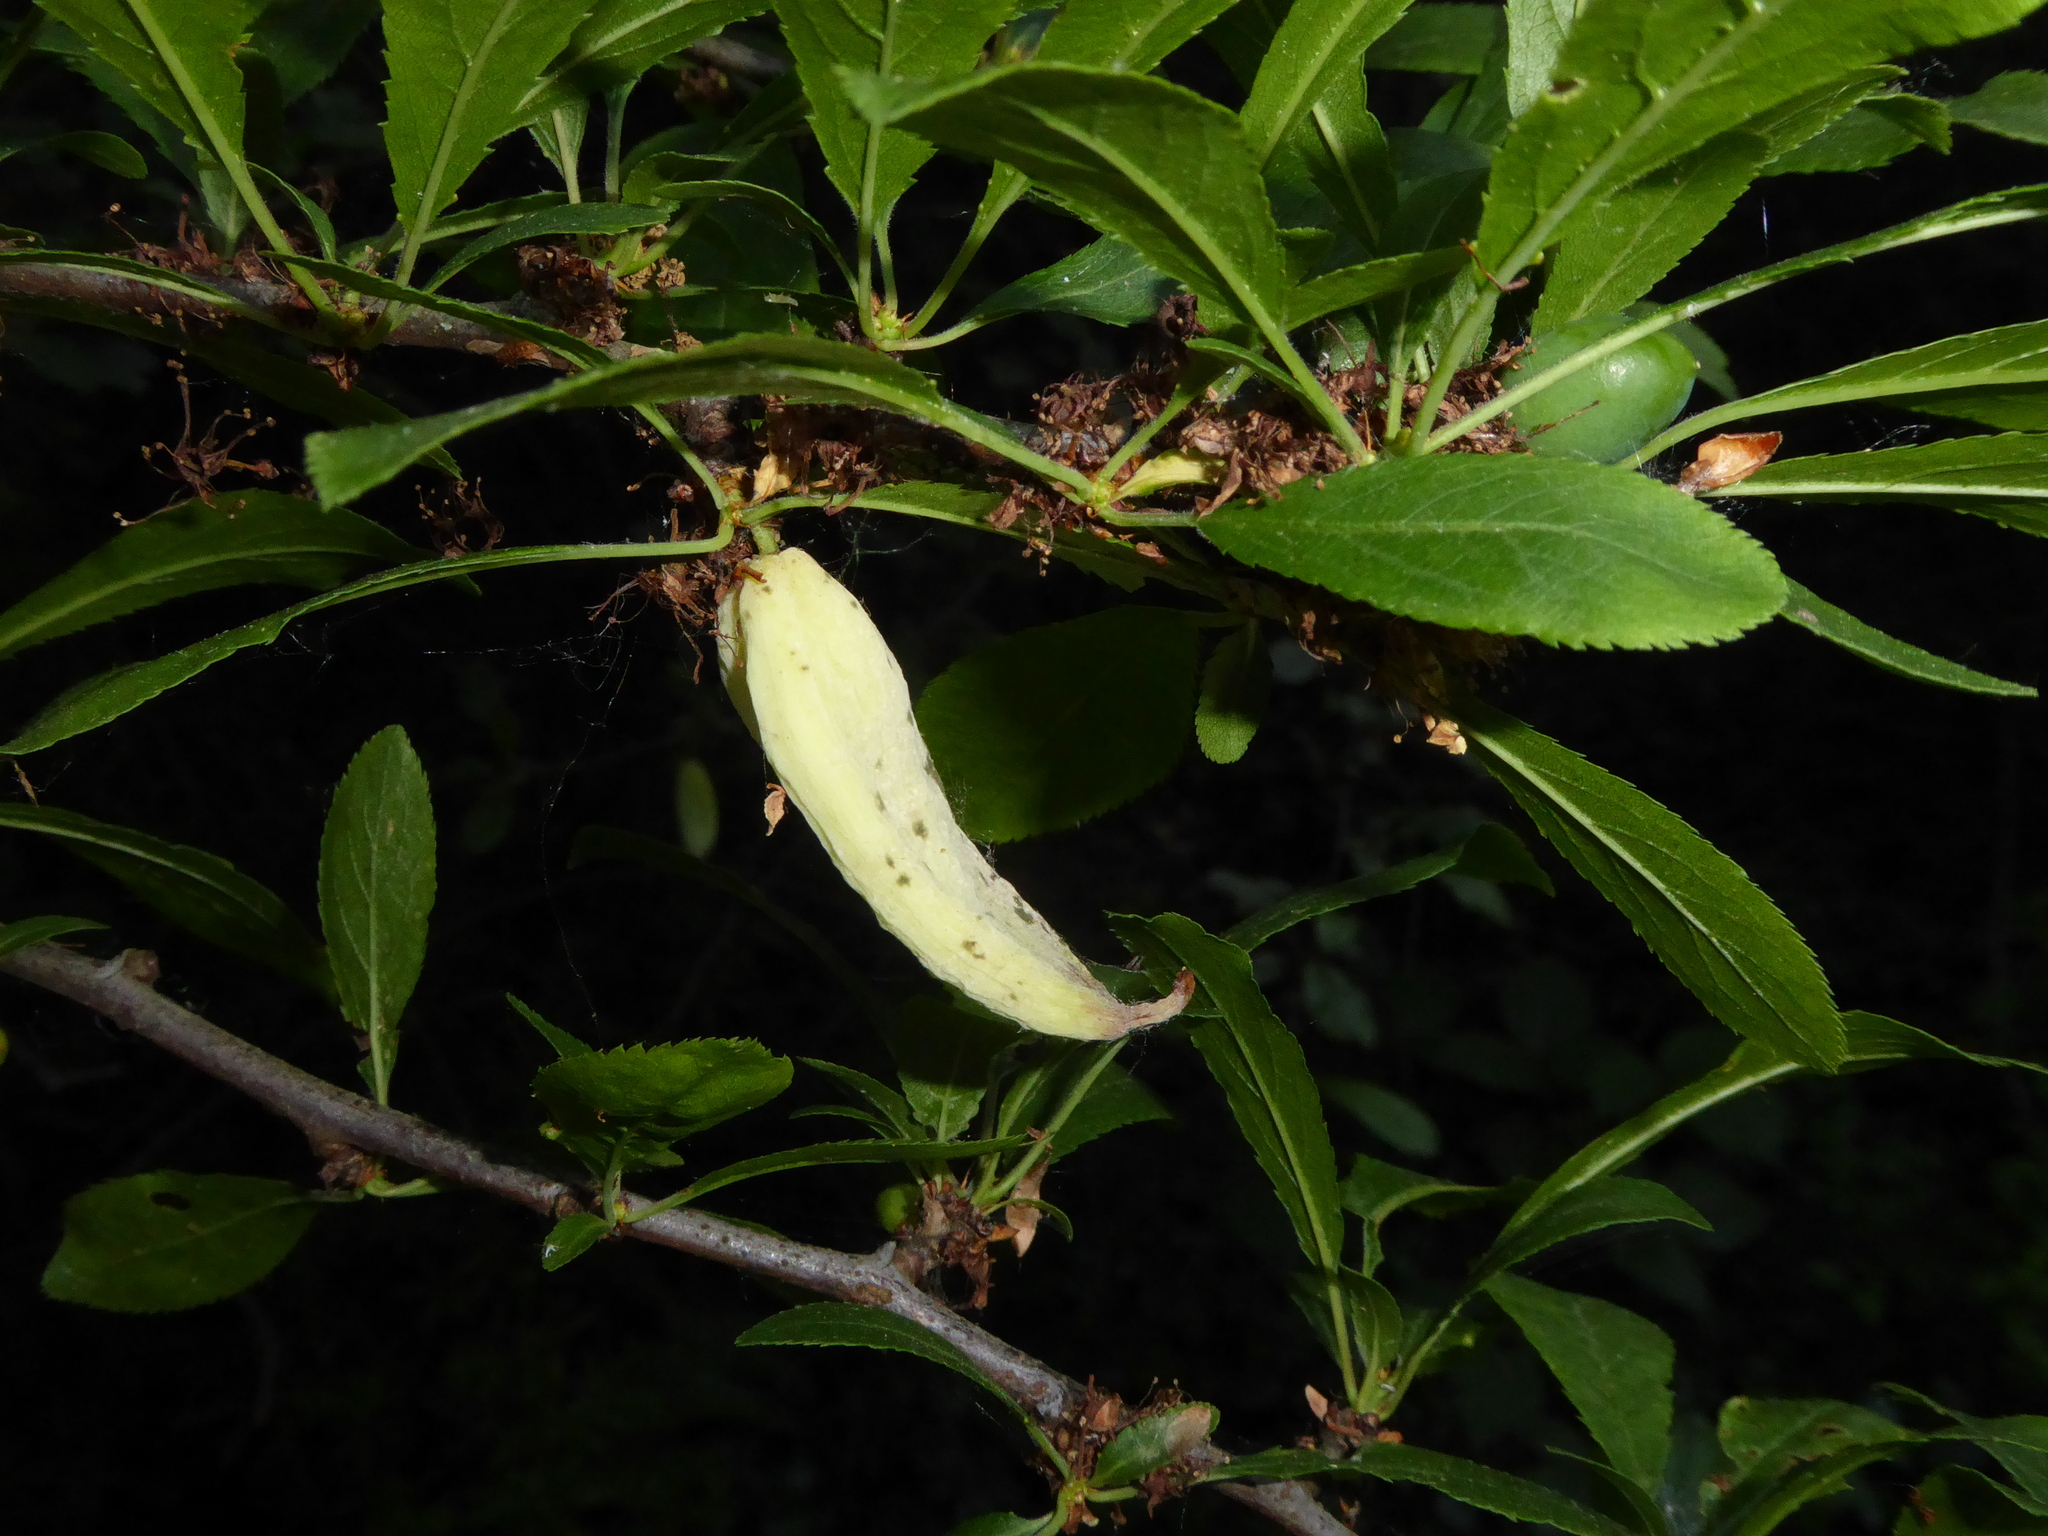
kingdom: Fungi
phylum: Ascomycota
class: Taphrinomycetes
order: Taphrinales
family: Taphrinaceae
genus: Taphrina
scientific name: Taphrina pruni
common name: Pocket plum
